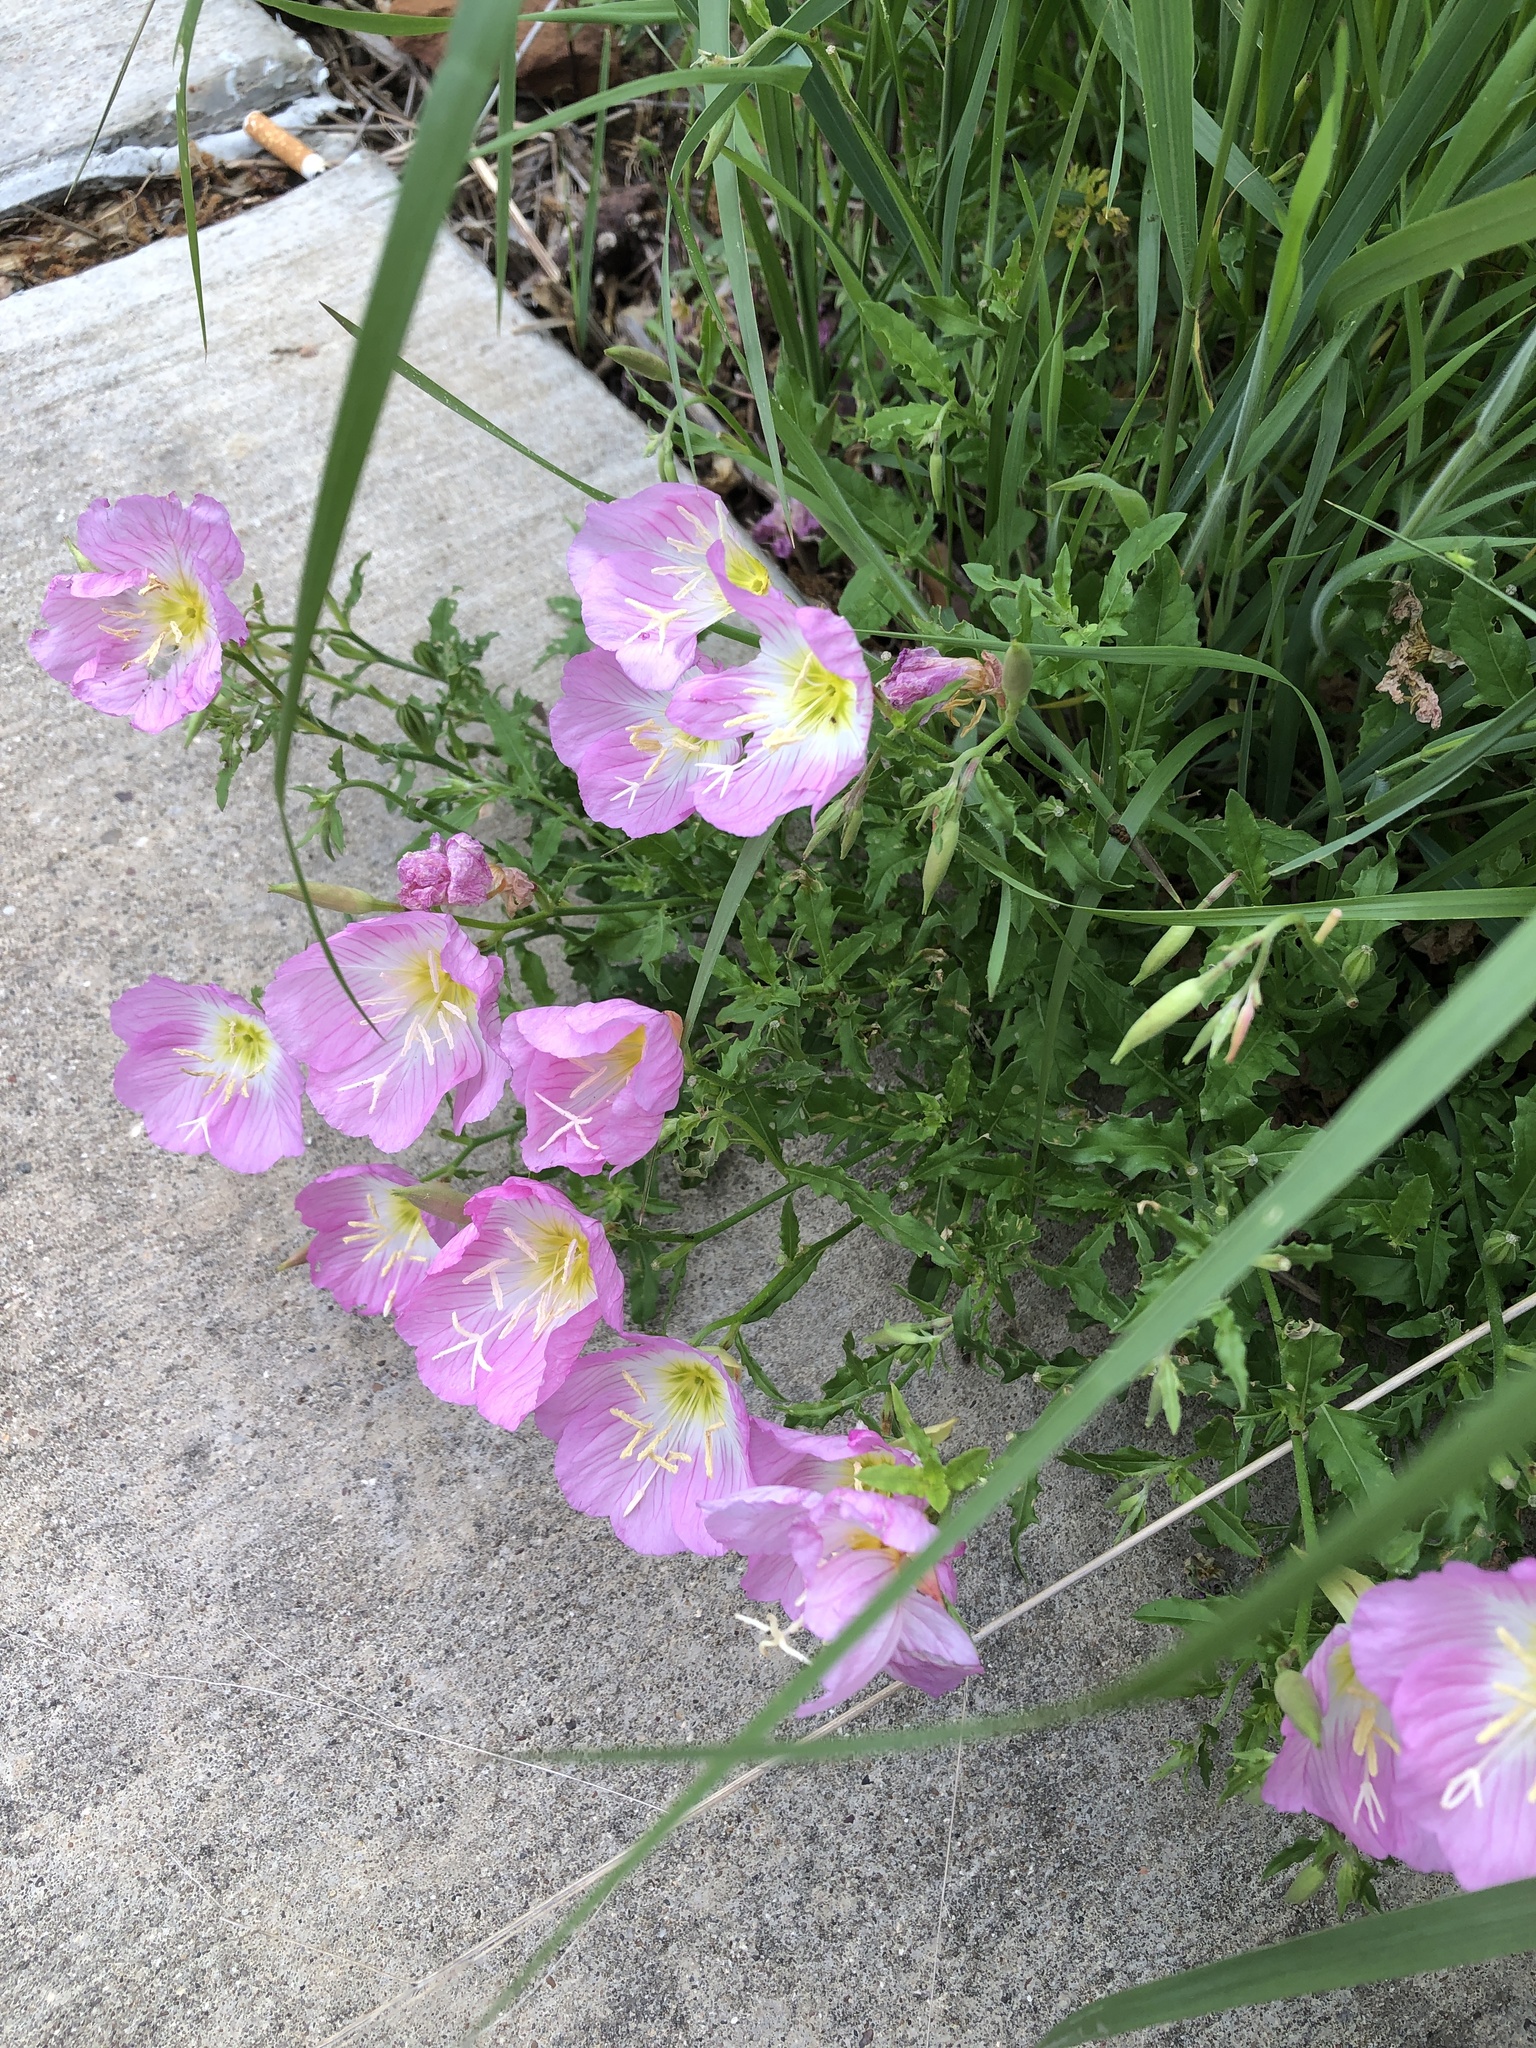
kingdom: Plantae
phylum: Tracheophyta
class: Magnoliopsida
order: Myrtales
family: Onagraceae
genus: Oenothera
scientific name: Oenothera speciosa
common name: White evening-primrose
